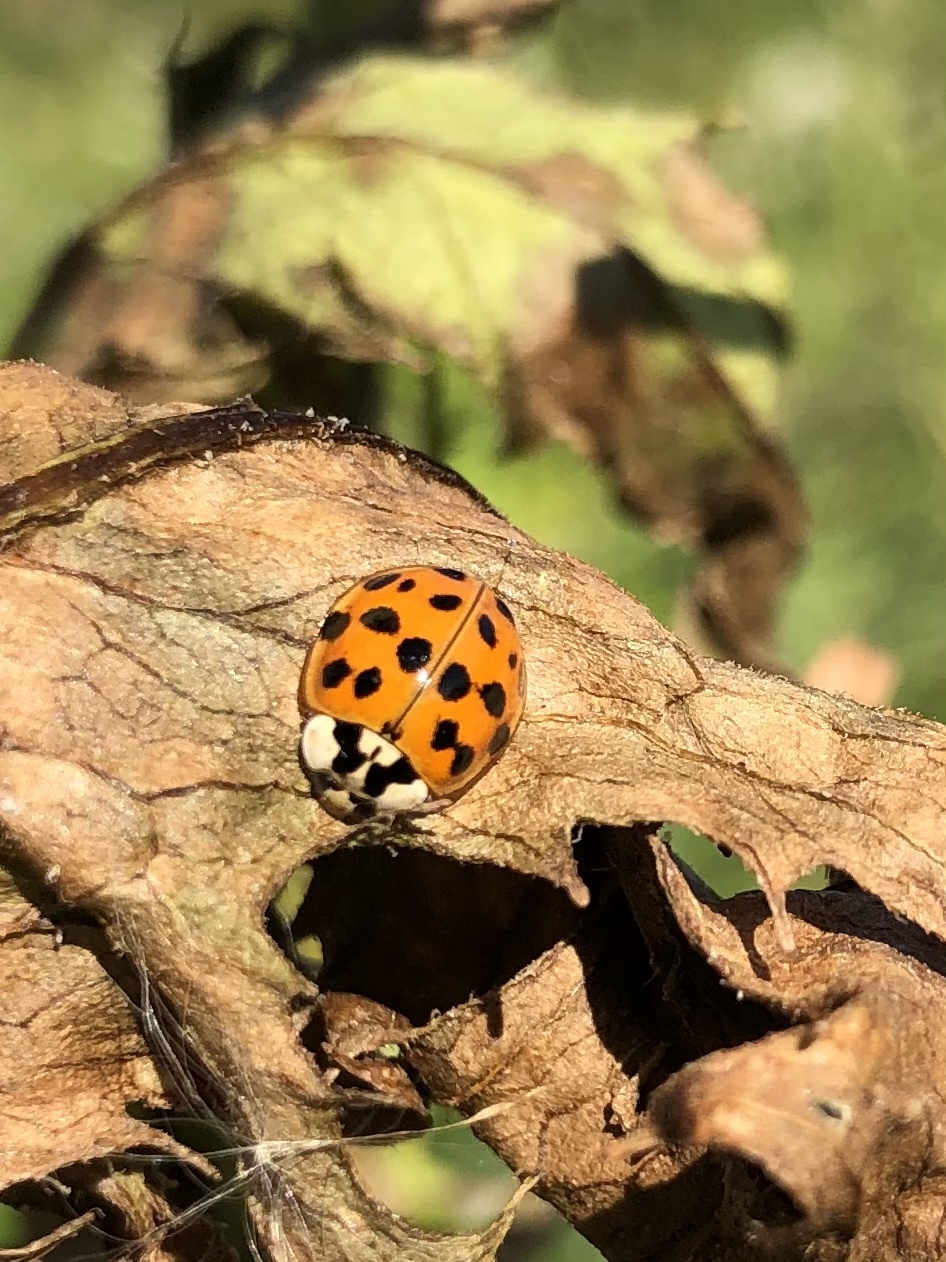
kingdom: Animalia
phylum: Arthropoda
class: Insecta
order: Coleoptera
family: Coccinellidae
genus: Harmonia
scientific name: Harmonia axyridis
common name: Harlequin ladybird
